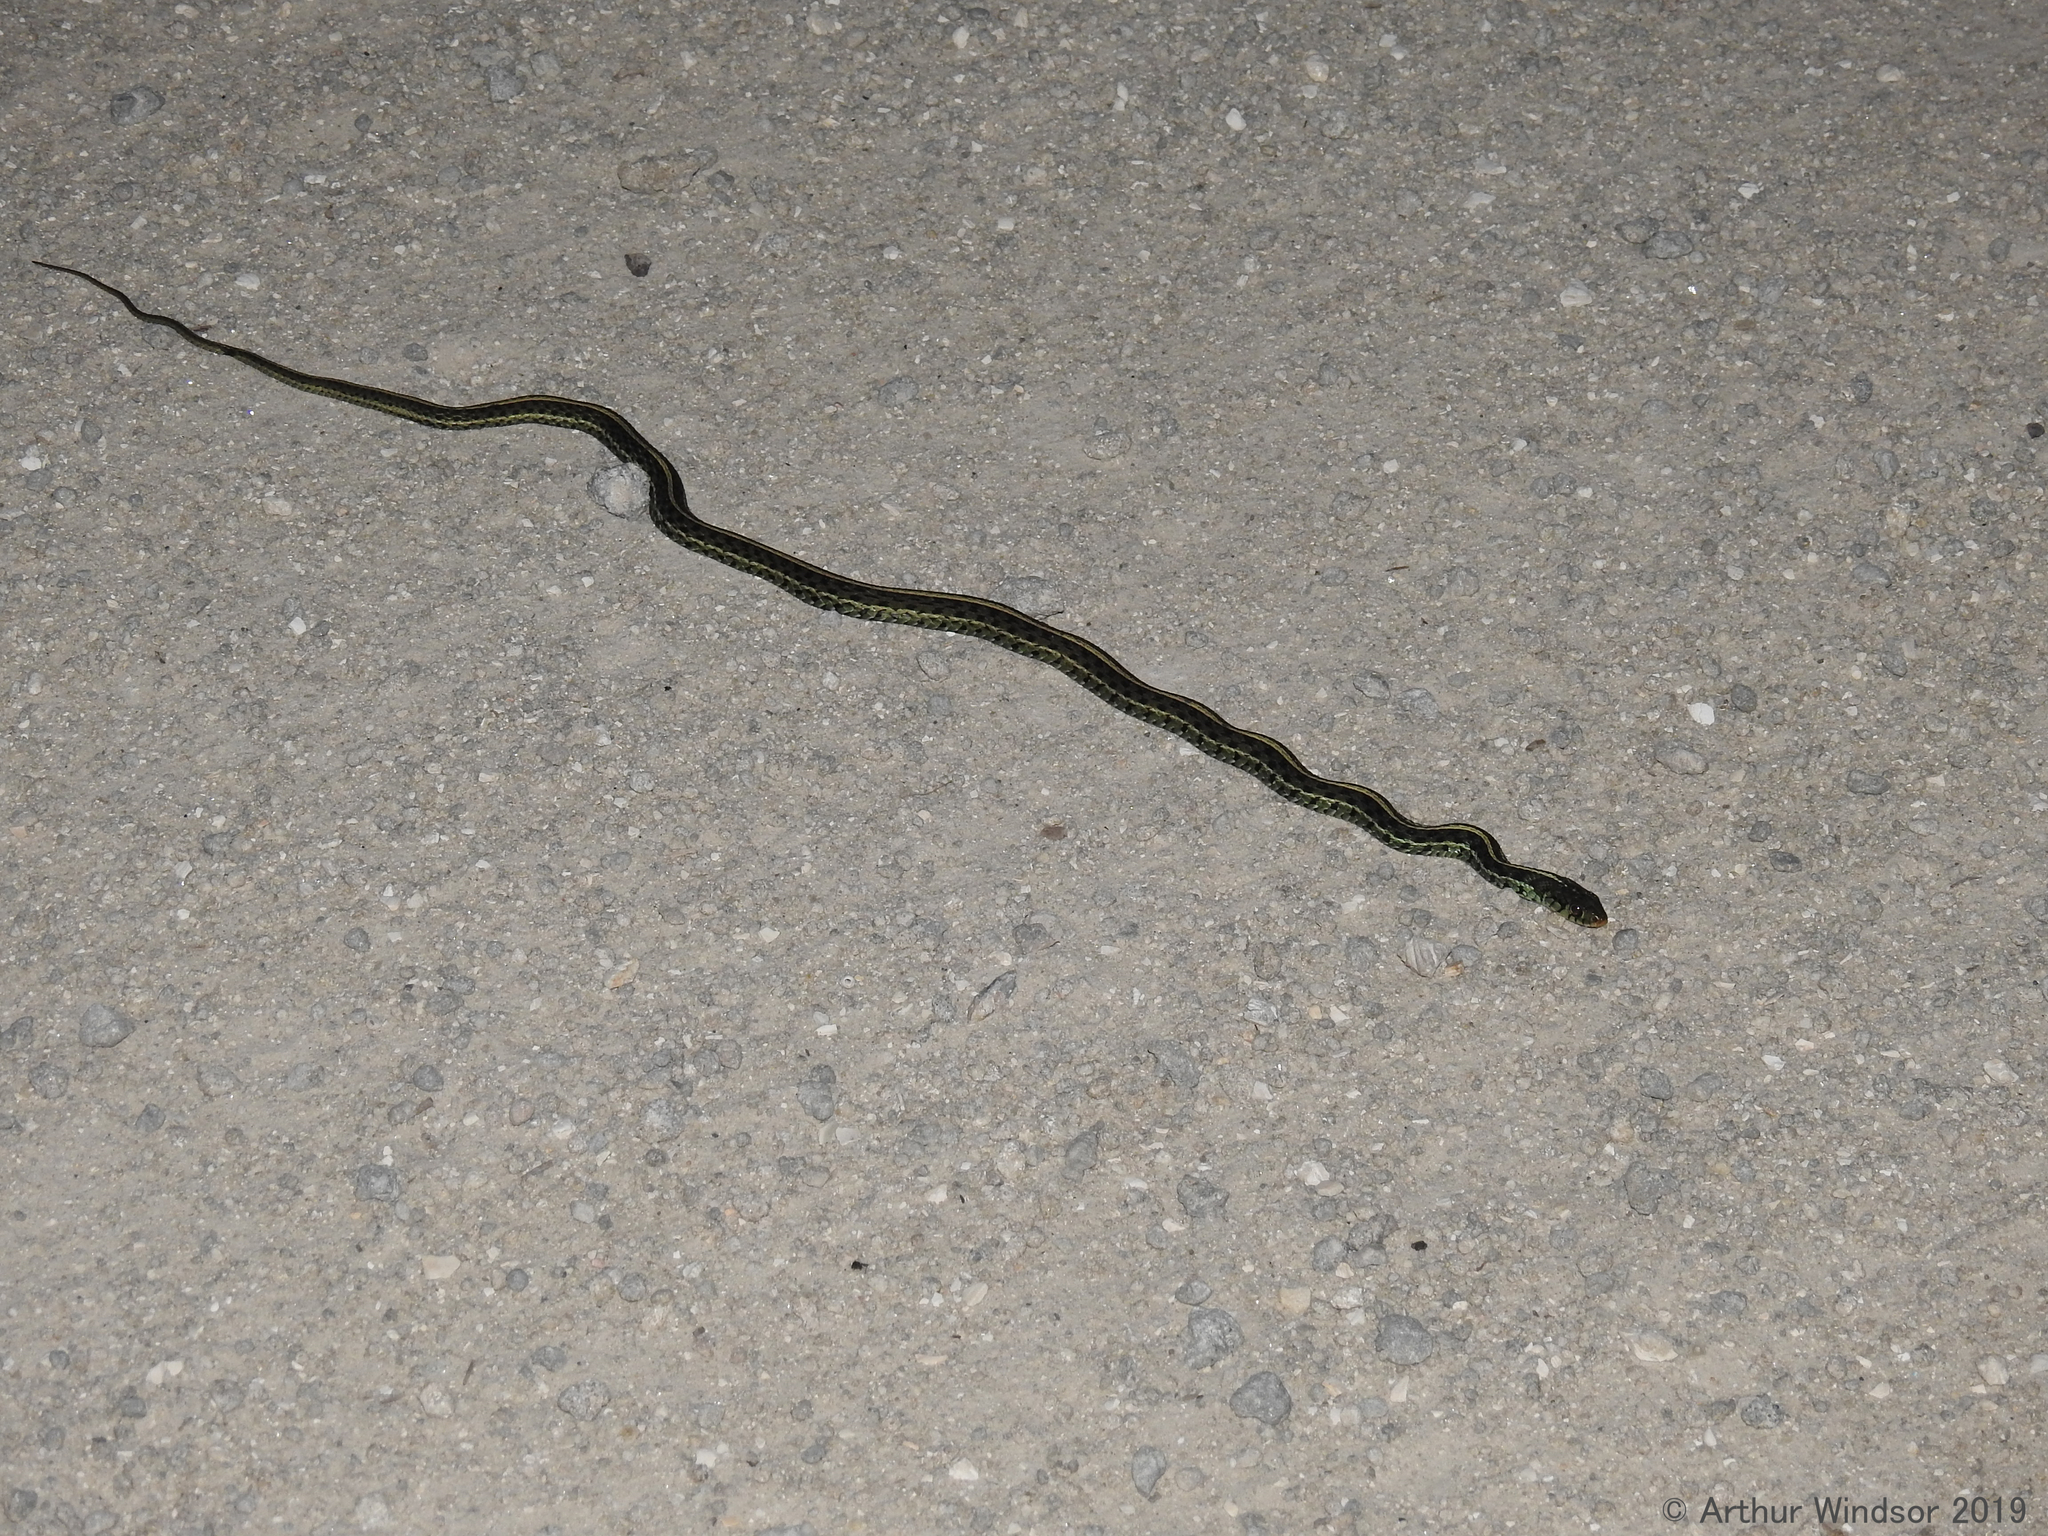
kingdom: Animalia
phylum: Chordata
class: Squamata
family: Colubridae
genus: Thamnophis
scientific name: Thamnophis sirtalis
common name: Common garter snake
